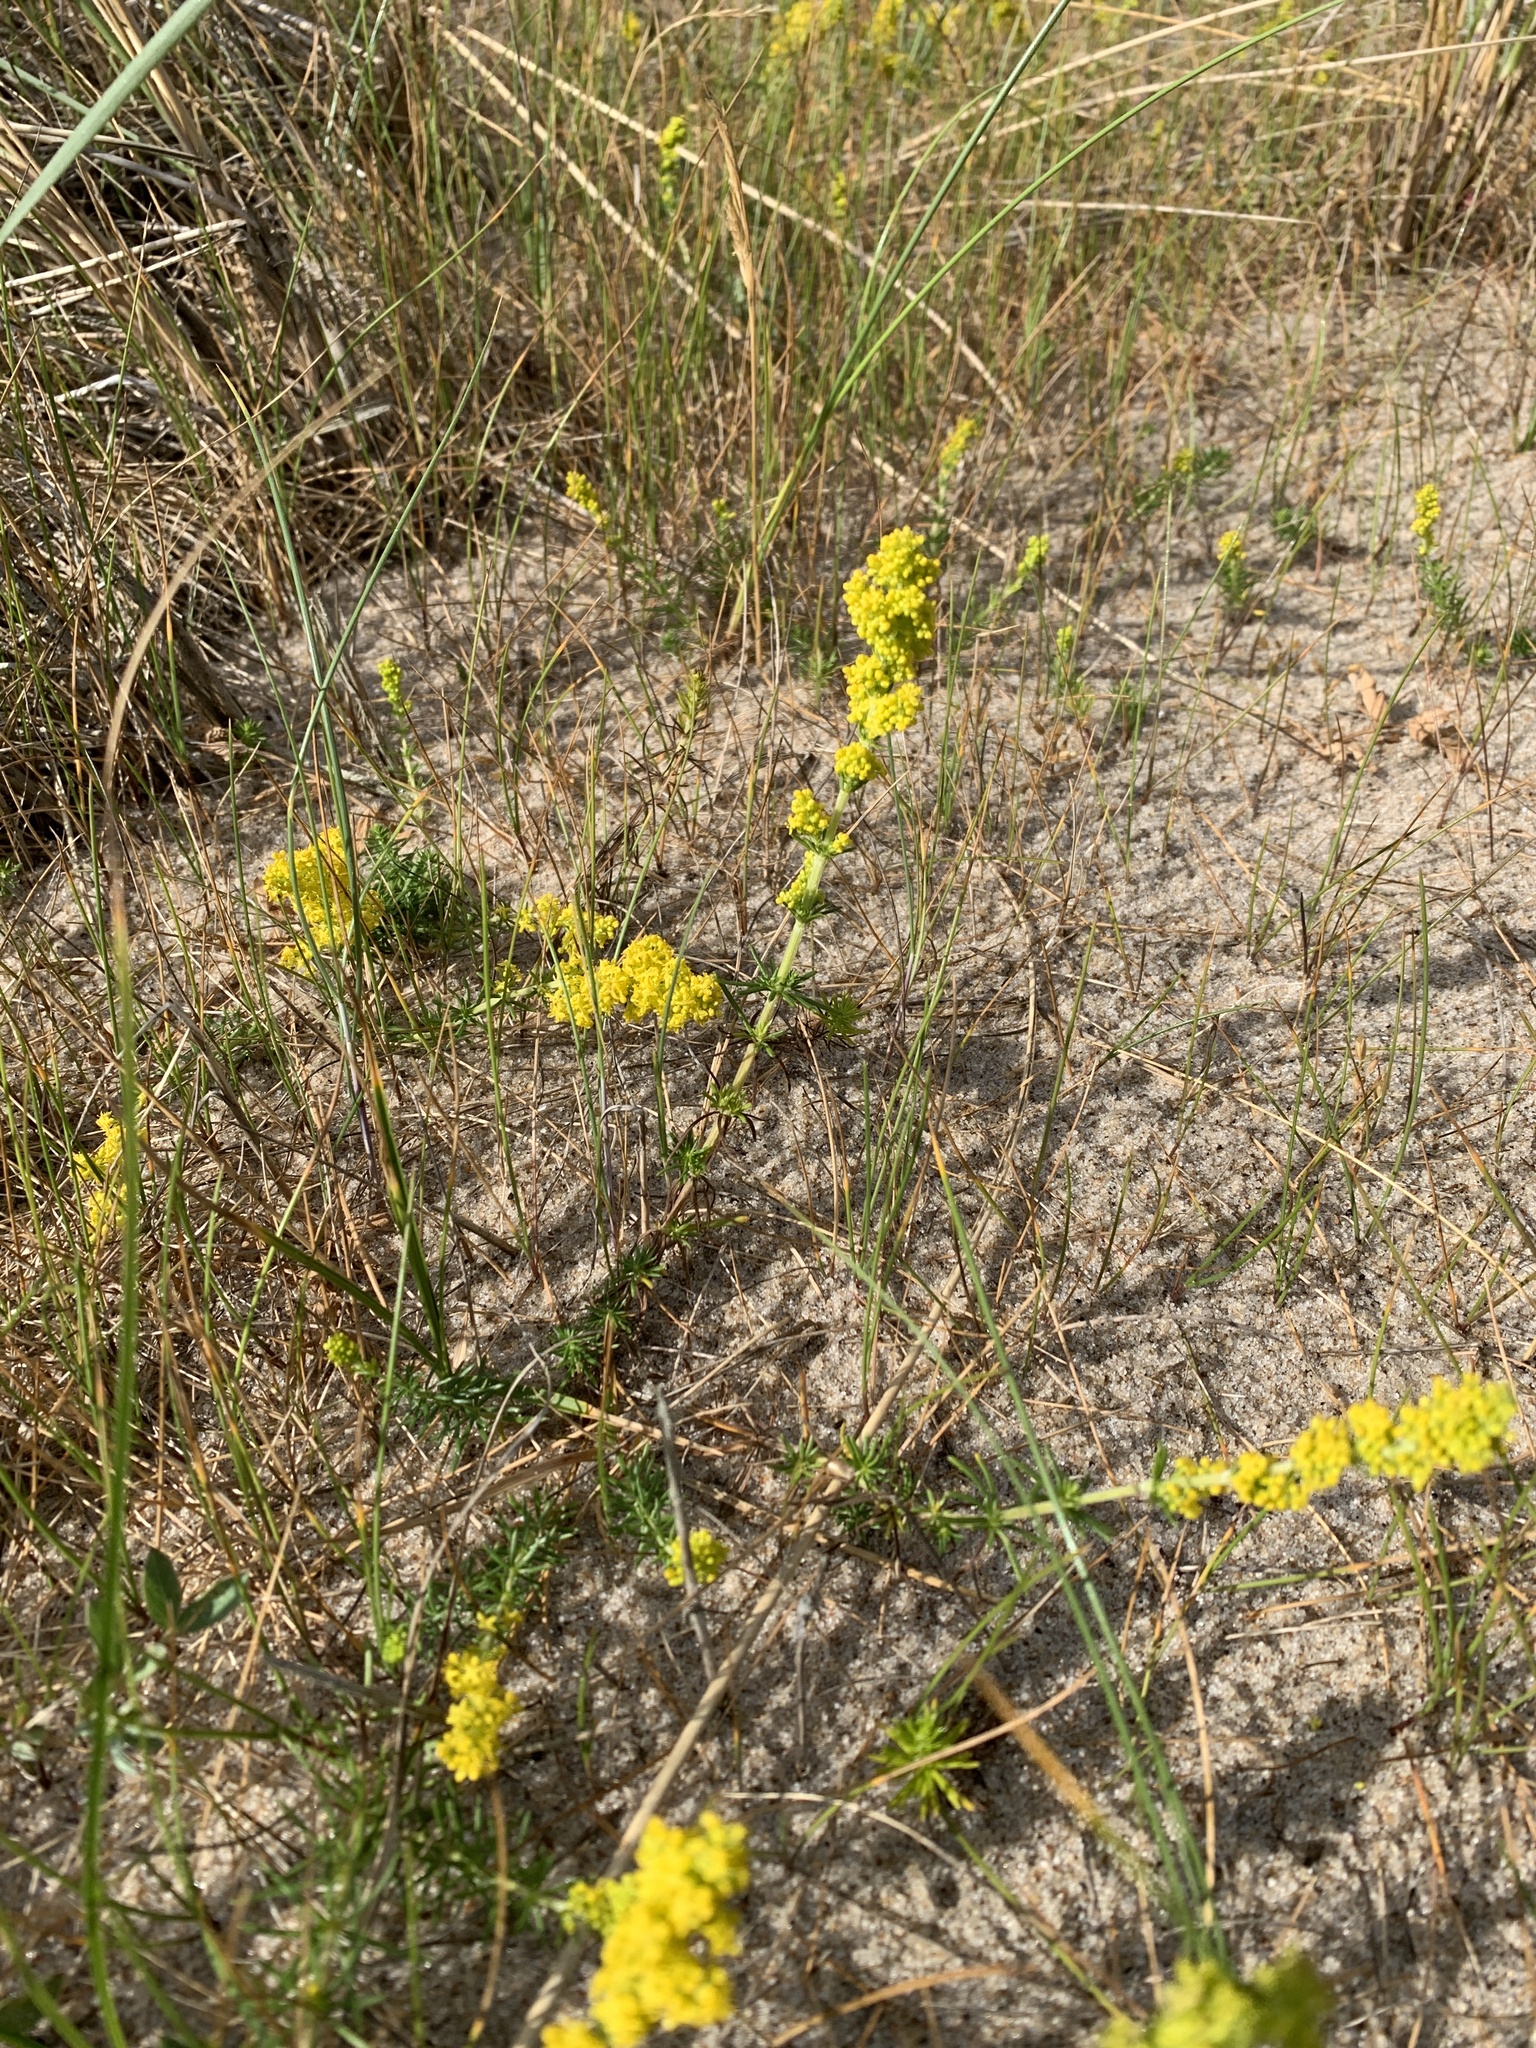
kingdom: Plantae
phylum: Tracheophyta
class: Magnoliopsida
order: Gentianales
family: Rubiaceae
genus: Galium
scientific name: Galium verum
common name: Lady's bedstraw
